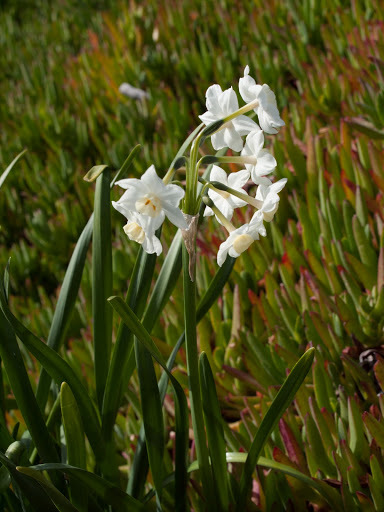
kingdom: Plantae
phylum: Tracheophyta
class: Liliopsida
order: Asparagales
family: Amaryllidaceae
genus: Narcissus
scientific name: Narcissus tazetta
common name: Bunch-flowered daffodil
